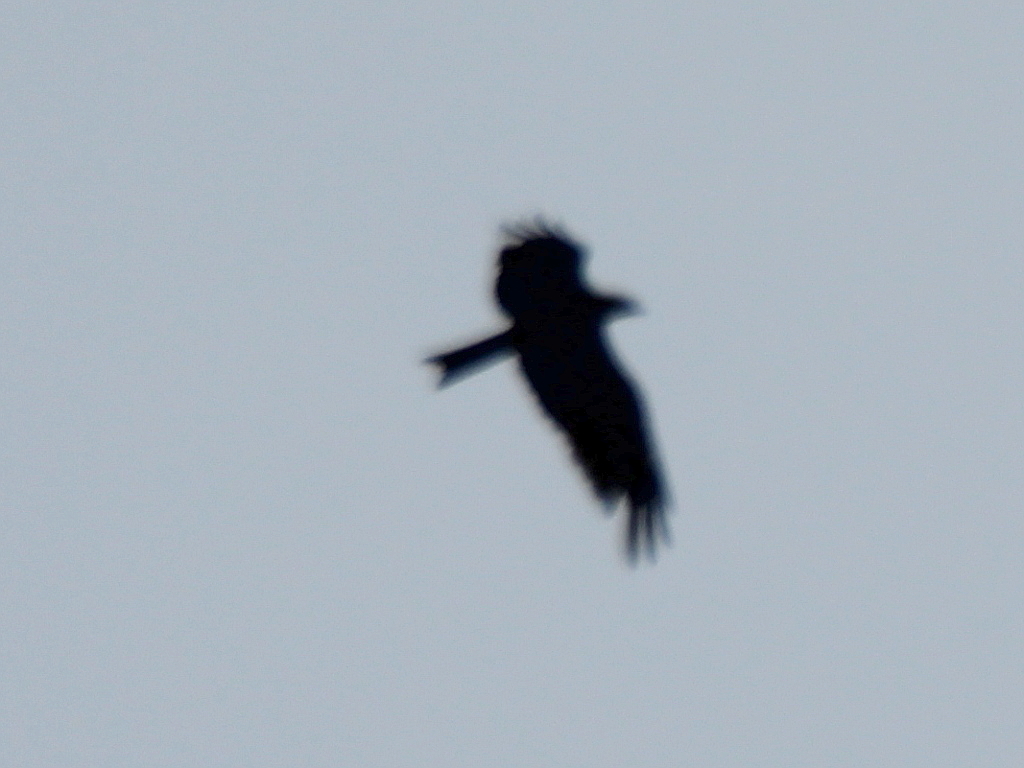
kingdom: Animalia
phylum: Chordata
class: Aves
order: Accipitriformes
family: Accipitridae
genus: Milvus
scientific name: Milvus migrans
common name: Black kite
